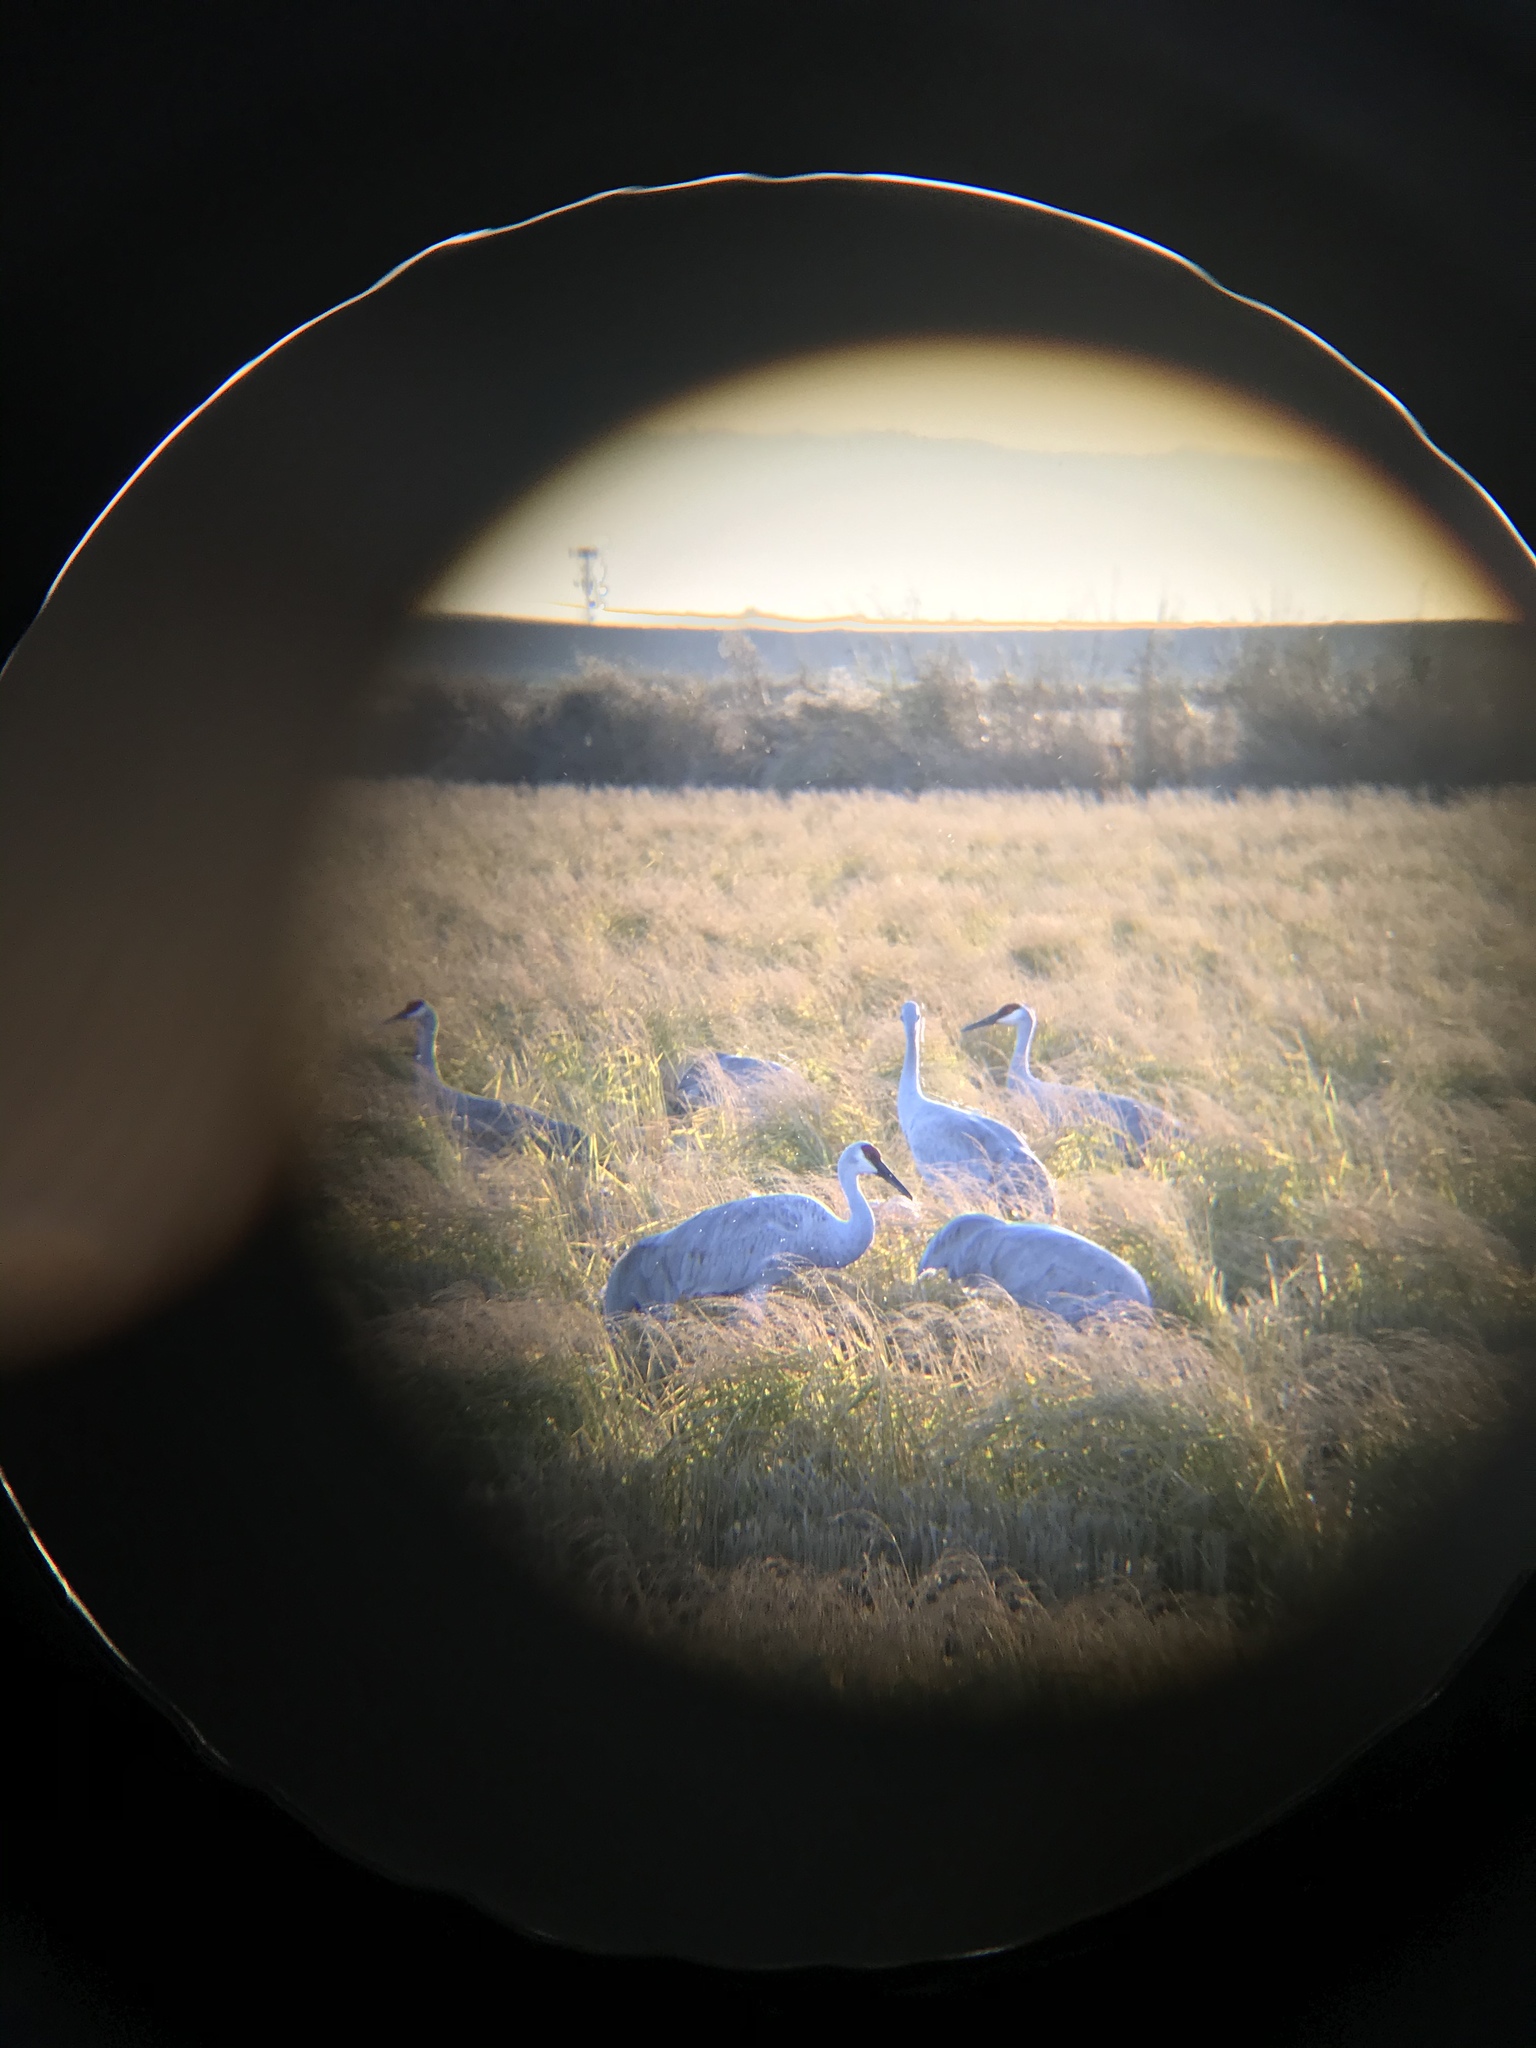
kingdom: Animalia
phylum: Chordata
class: Aves
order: Gruiformes
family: Gruidae
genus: Grus
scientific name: Grus canadensis
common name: Sandhill crane
